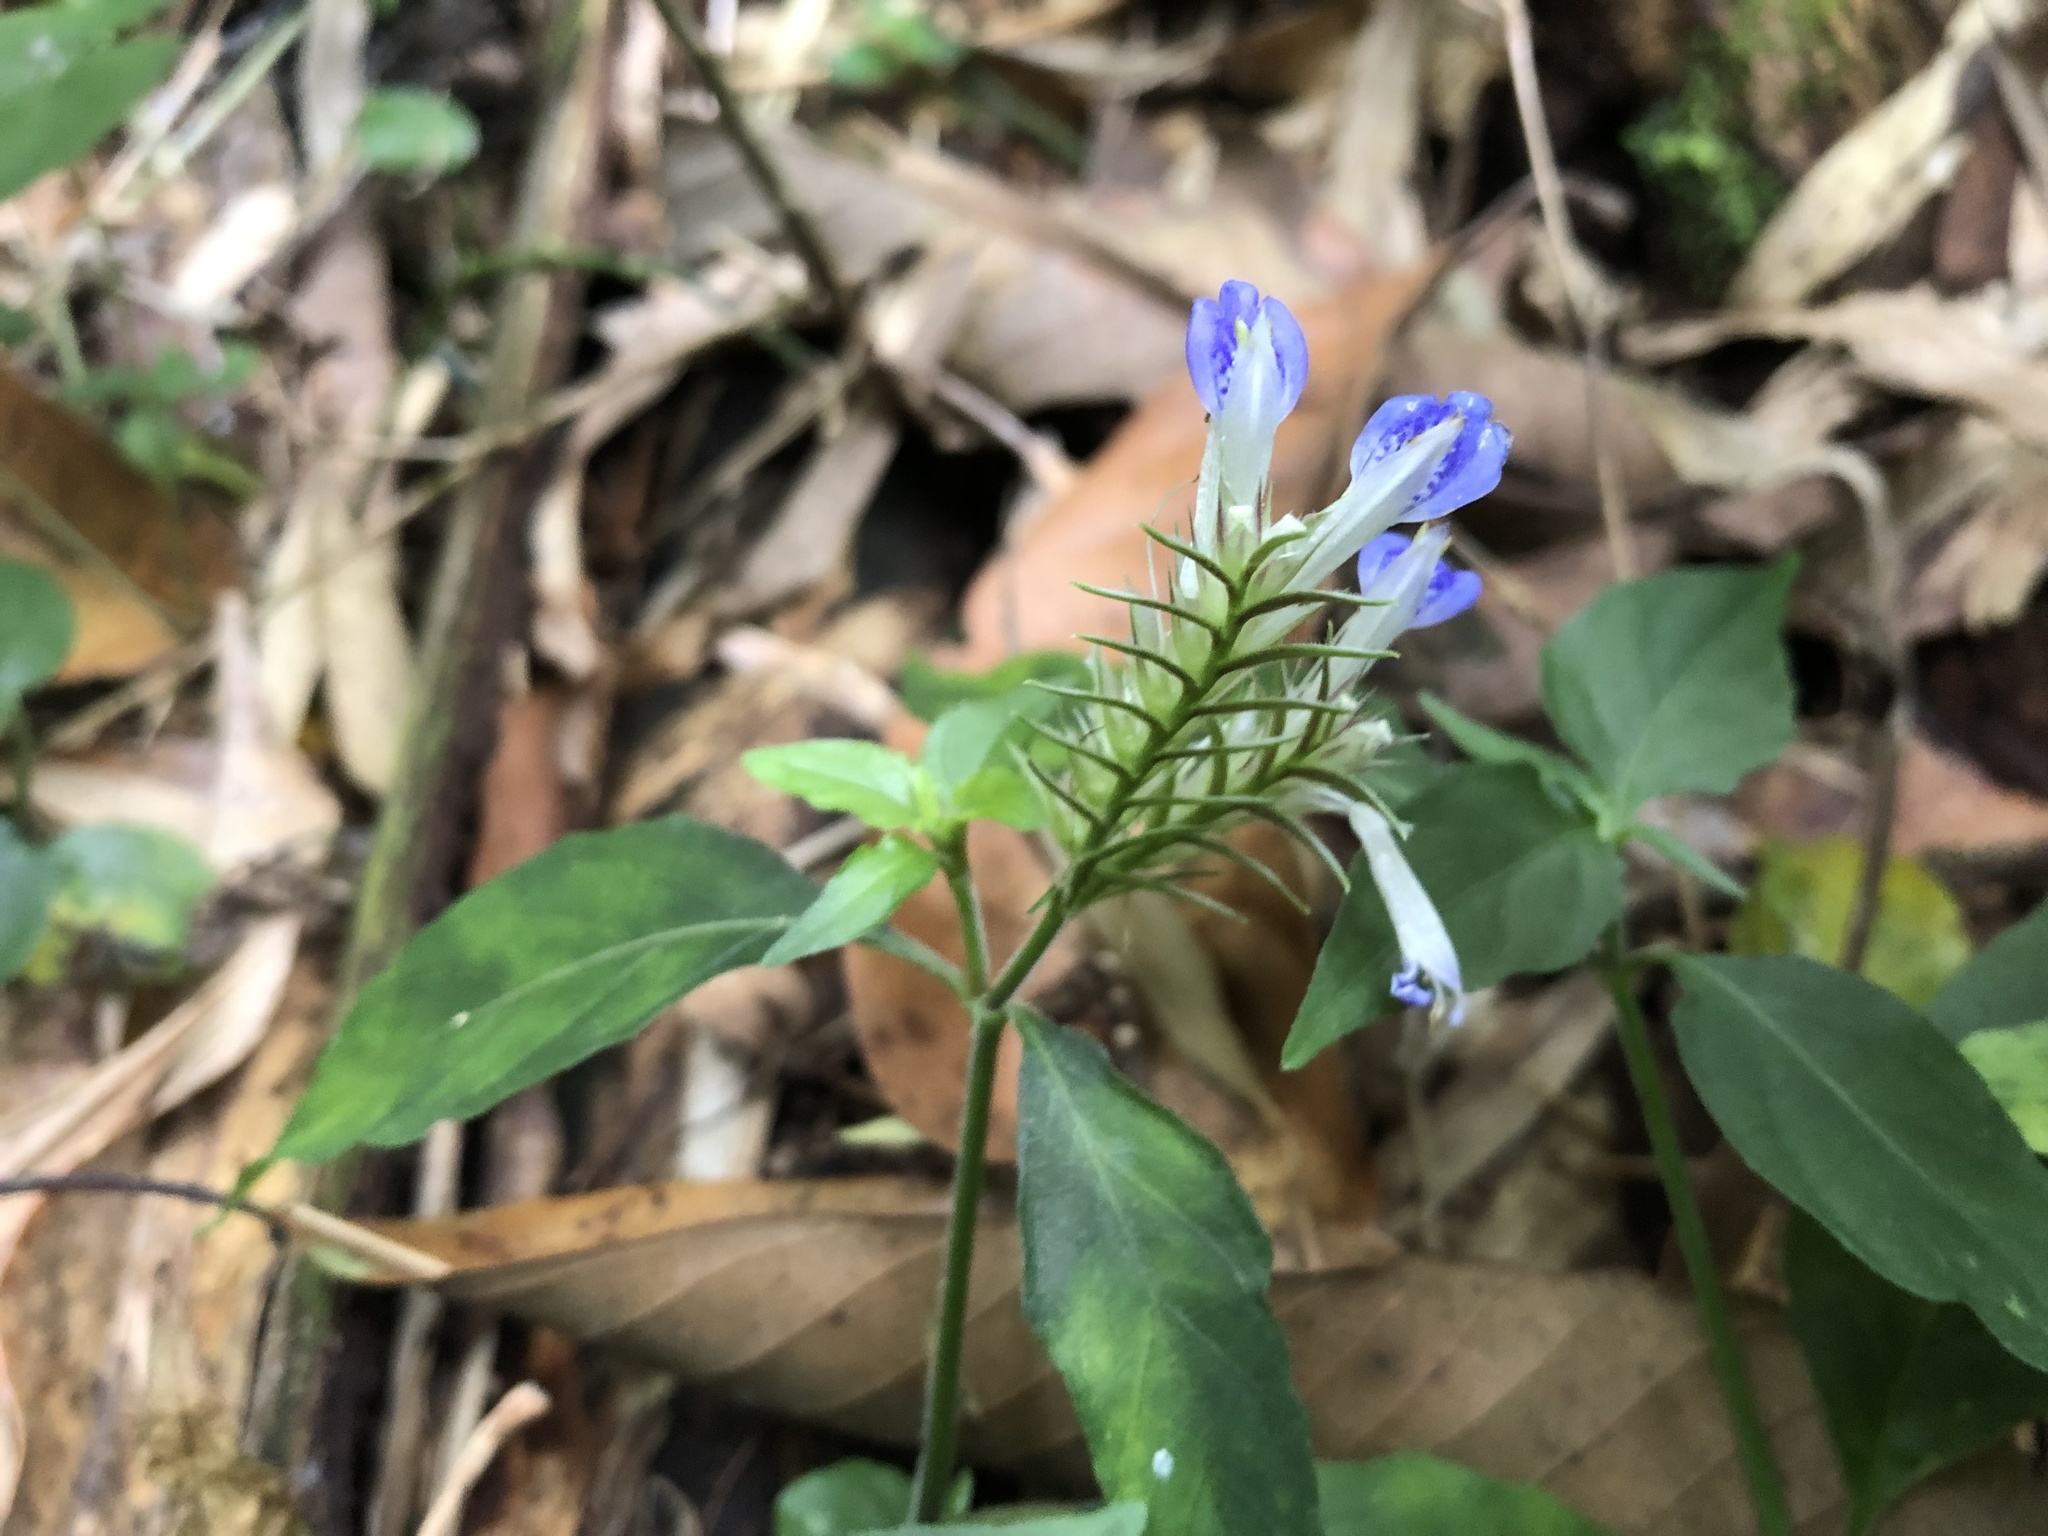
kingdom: Plantae
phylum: Tracheophyta
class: Magnoliopsida
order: Lamiales
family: Acanthaceae
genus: Rungia
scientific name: Rungia taiwanensis
